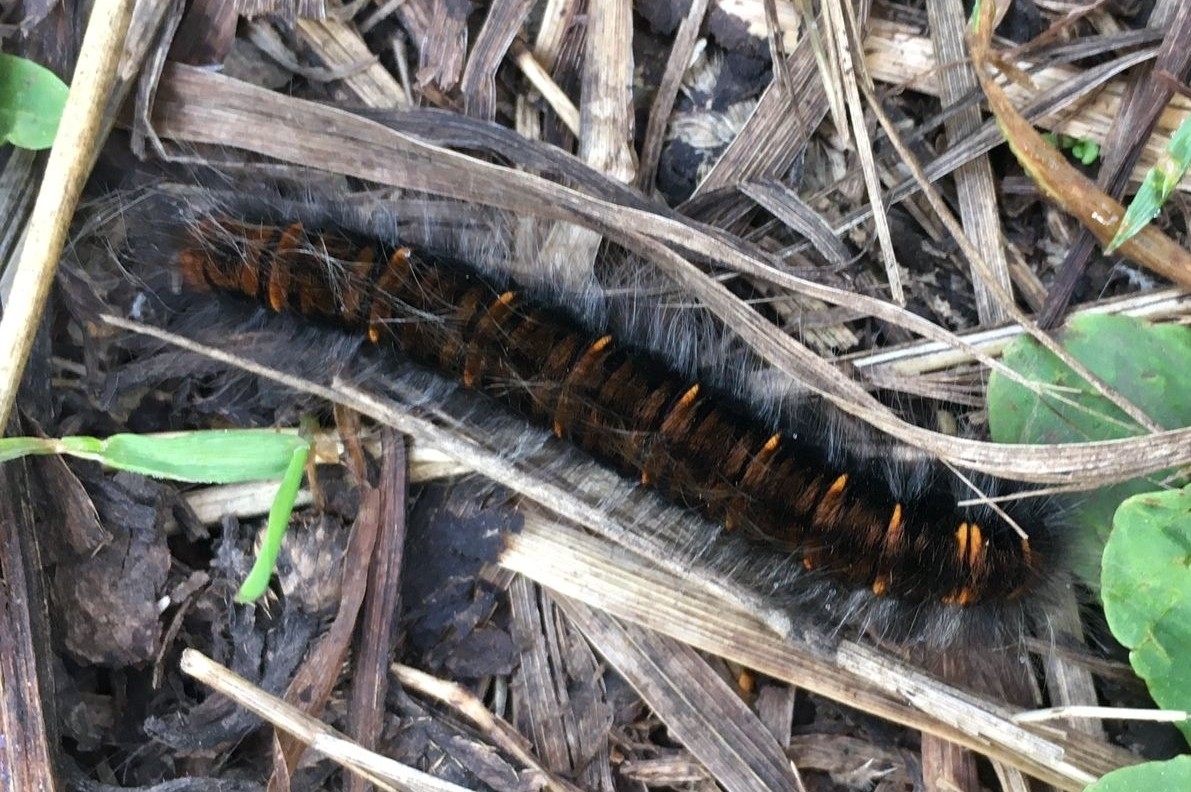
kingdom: Animalia
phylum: Arthropoda
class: Insecta
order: Lepidoptera
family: Lasiocampidae
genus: Macrothylacia
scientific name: Macrothylacia rubi
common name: Fox moth
